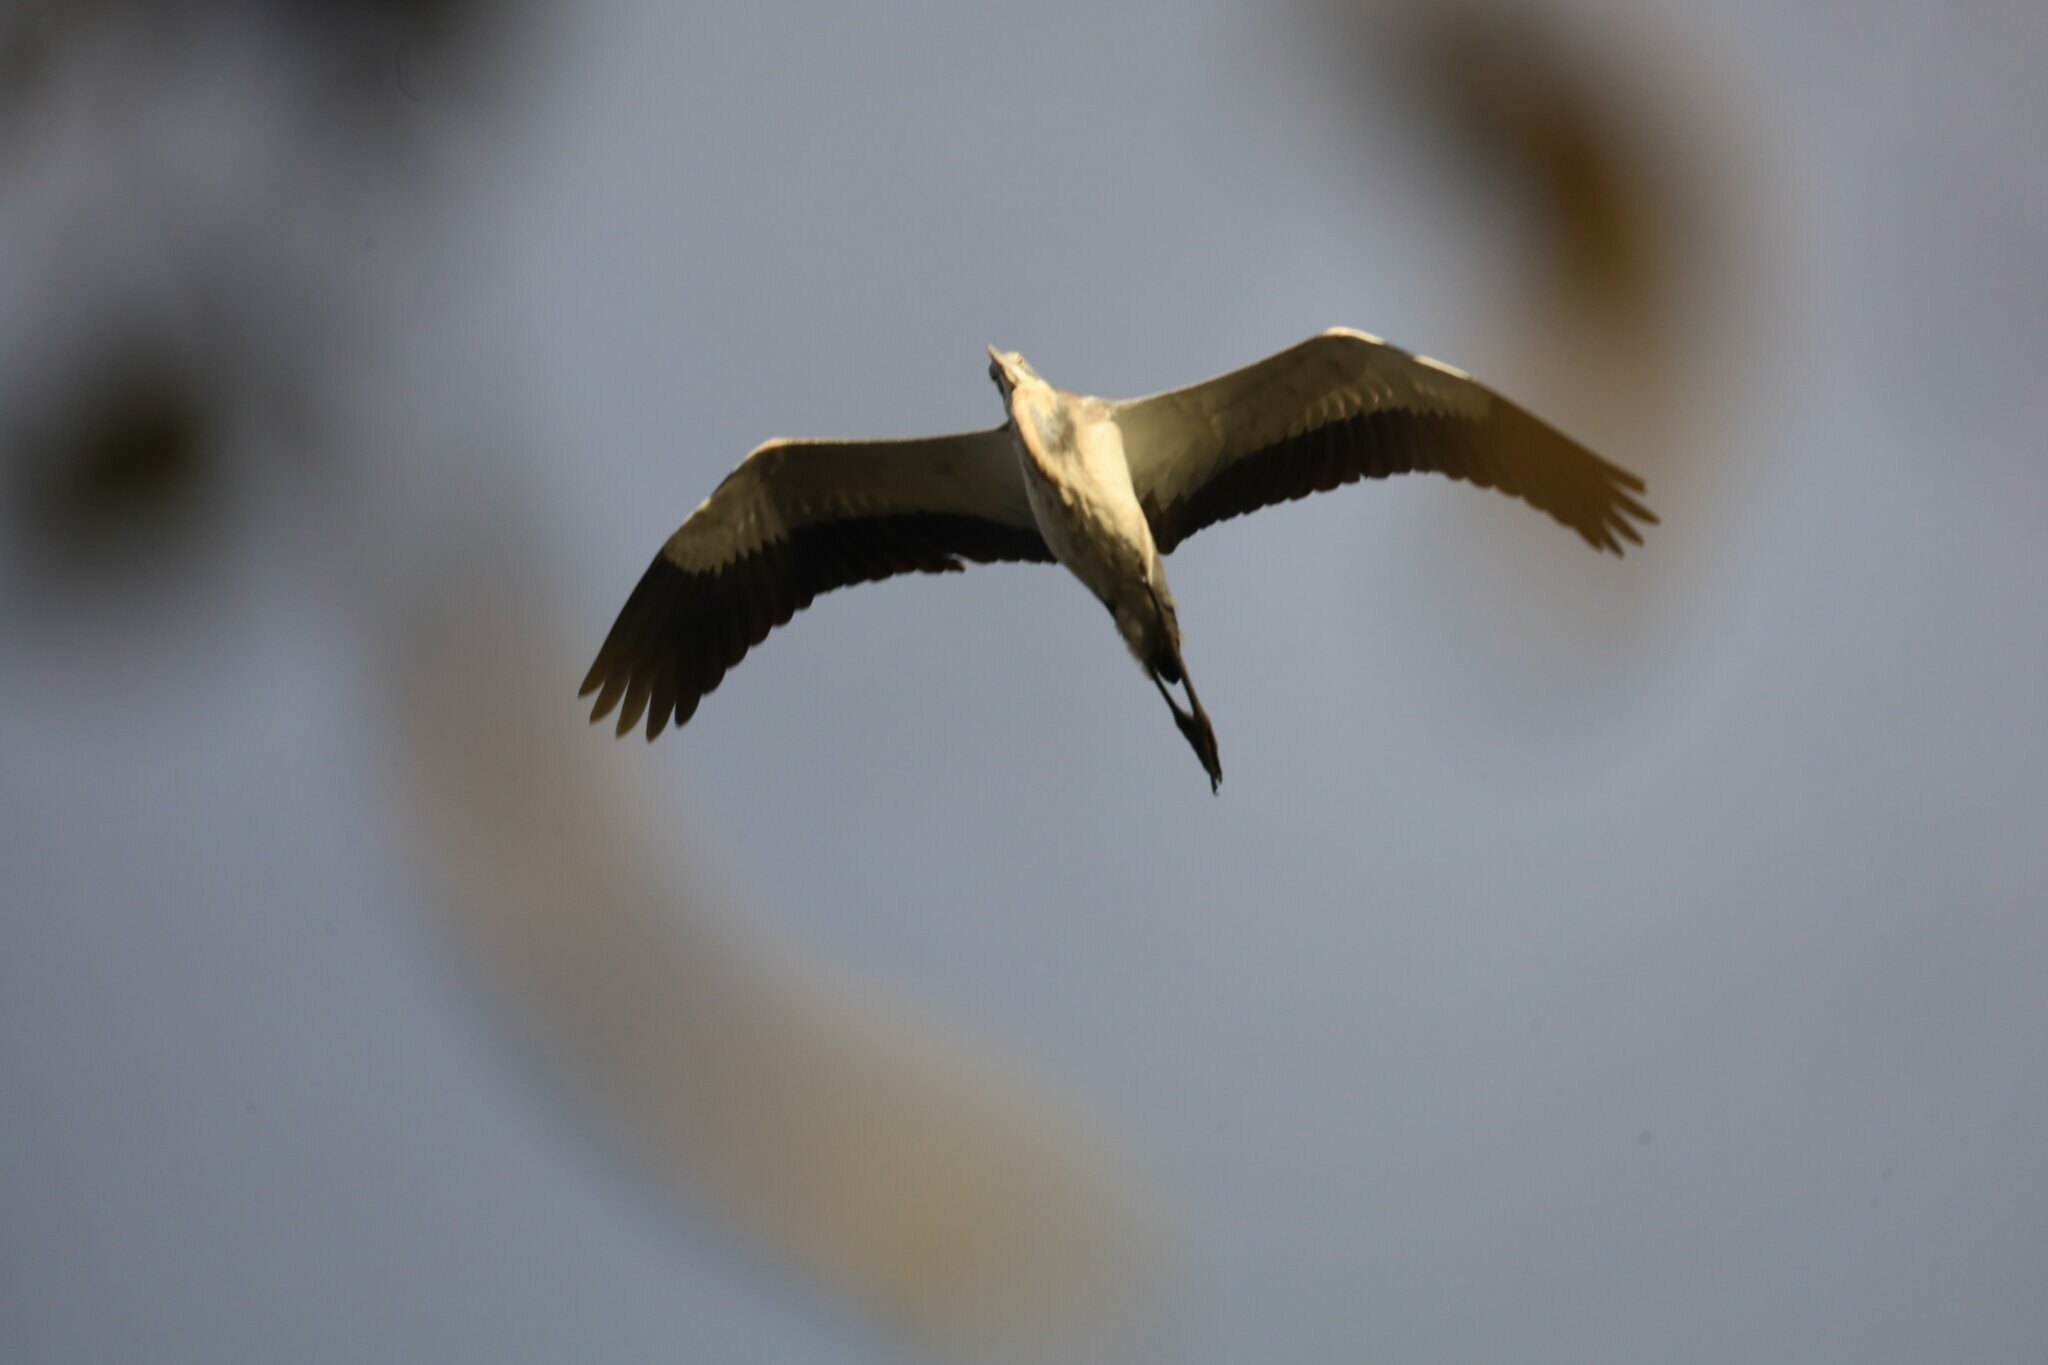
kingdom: Animalia
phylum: Chordata
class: Aves
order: Pelecaniformes
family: Ardeidae
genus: Ardea
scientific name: Ardea melanocephala
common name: Black-headed heron
